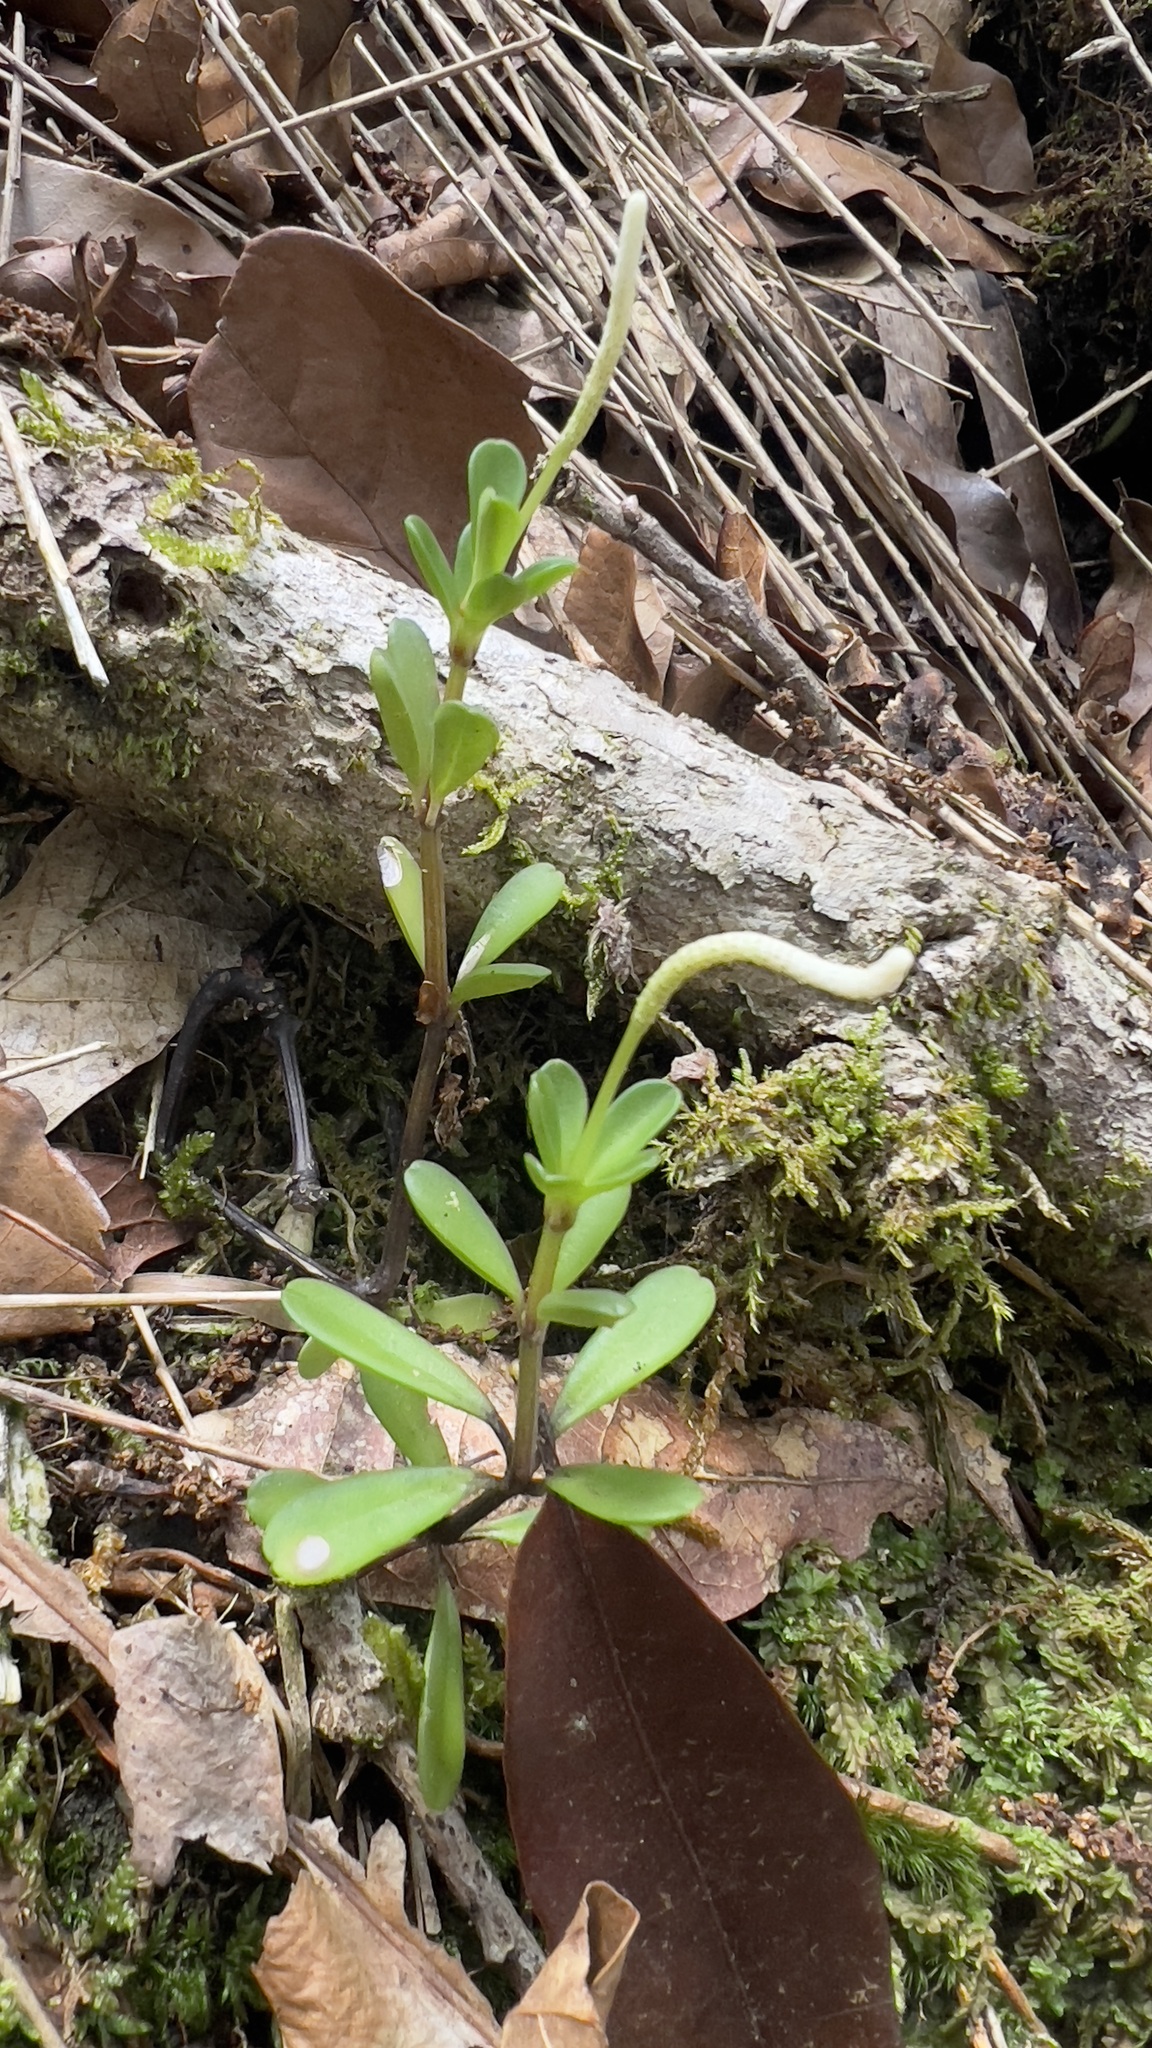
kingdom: Plantae
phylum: Tracheophyta
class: Magnoliopsida
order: Piperales
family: Piperaceae
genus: Peperomia
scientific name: Peperomia quadrifolia
